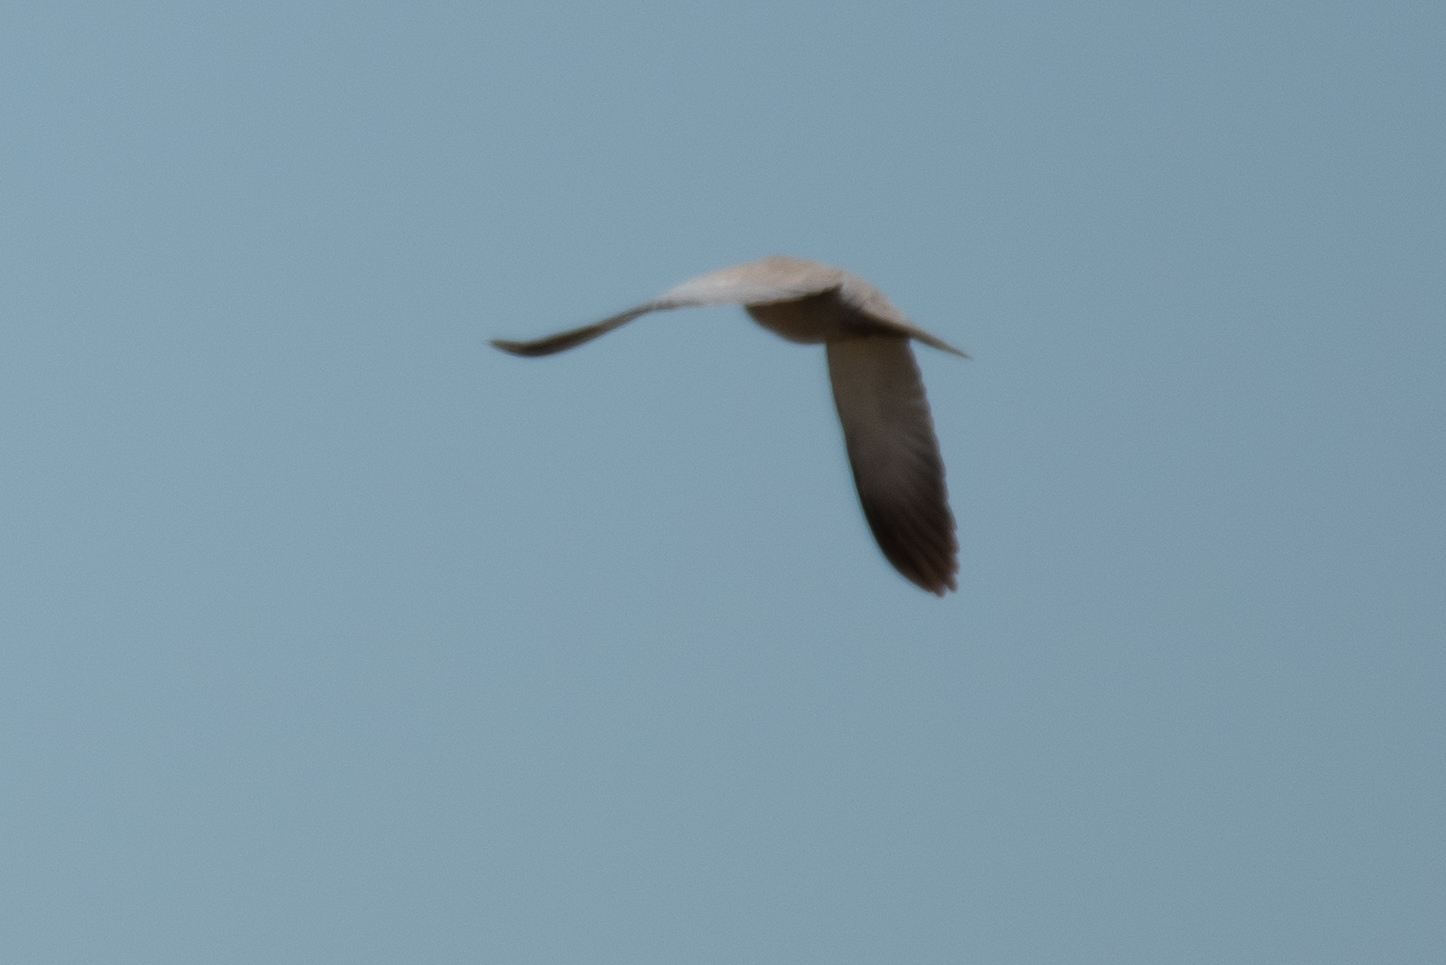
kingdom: Animalia
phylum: Chordata
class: Aves
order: Columbiformes
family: Columbidae
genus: Streptopelia
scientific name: Streptopelia decaocto
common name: Eurasian collared dove
